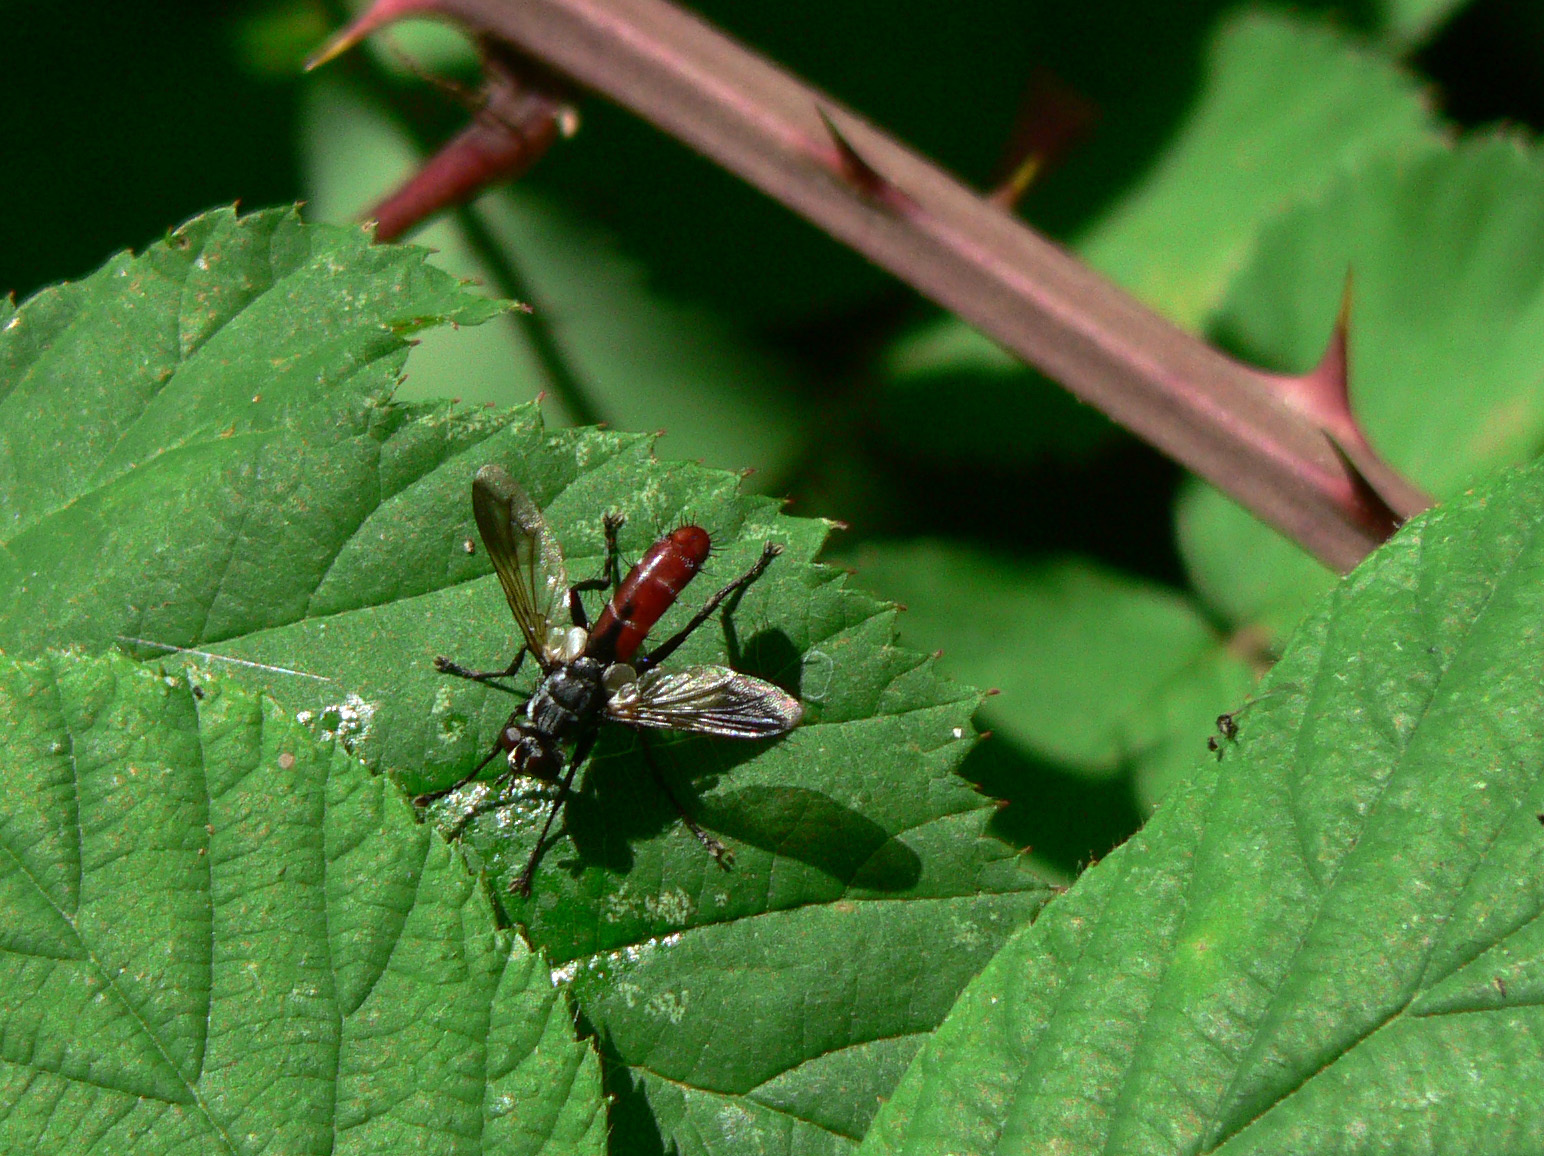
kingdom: Animalia
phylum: Arthropoda
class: Insecta
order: Diptera
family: Tachinidae
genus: Cylindromyia
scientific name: Cylindromyia bicolor
